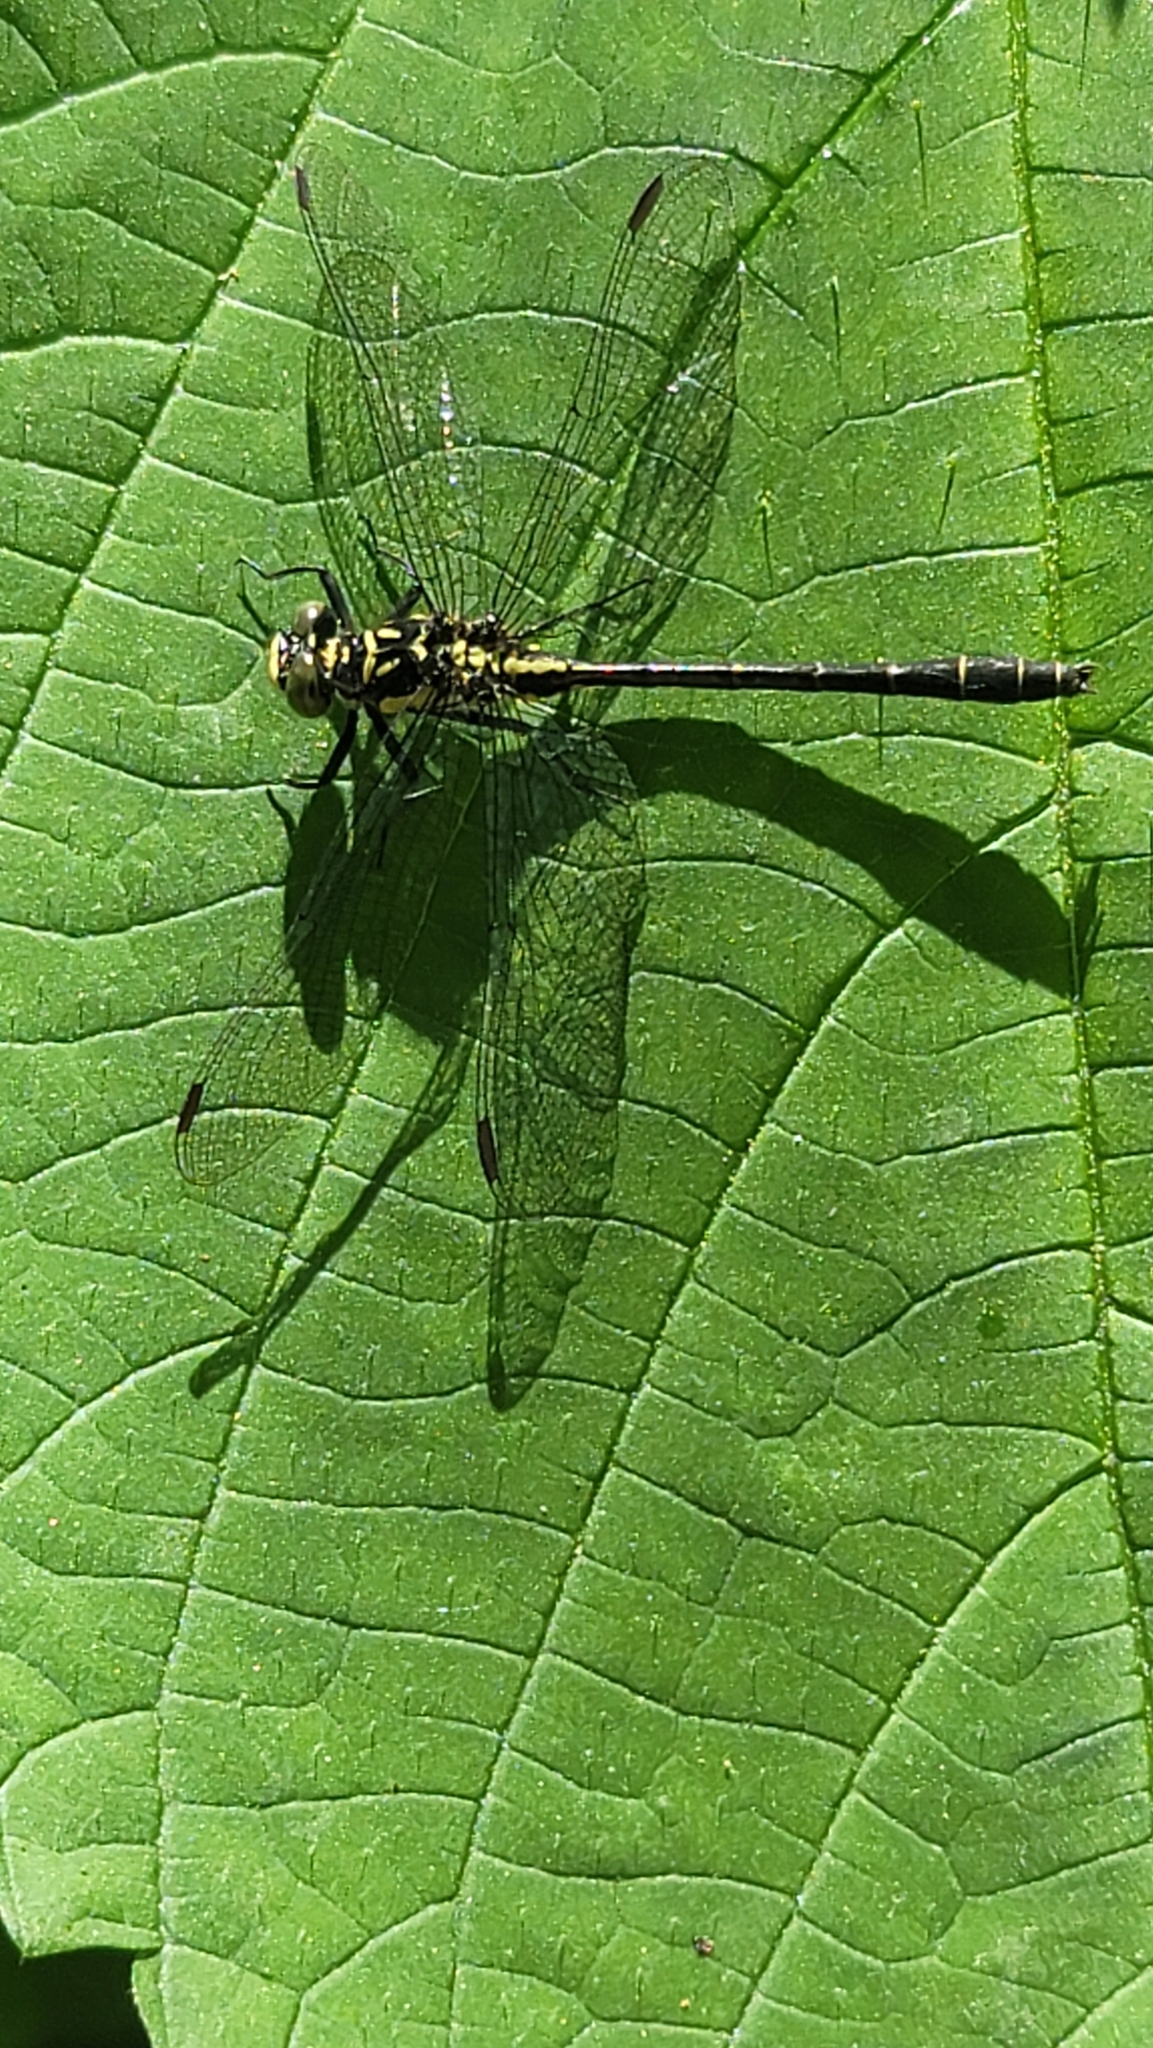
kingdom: Animalia
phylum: Arthropoda
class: Insecta
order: Odonata
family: Gomphidae
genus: Lanthus
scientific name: Lanthus vernalis
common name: Southern pygmy clubtail
